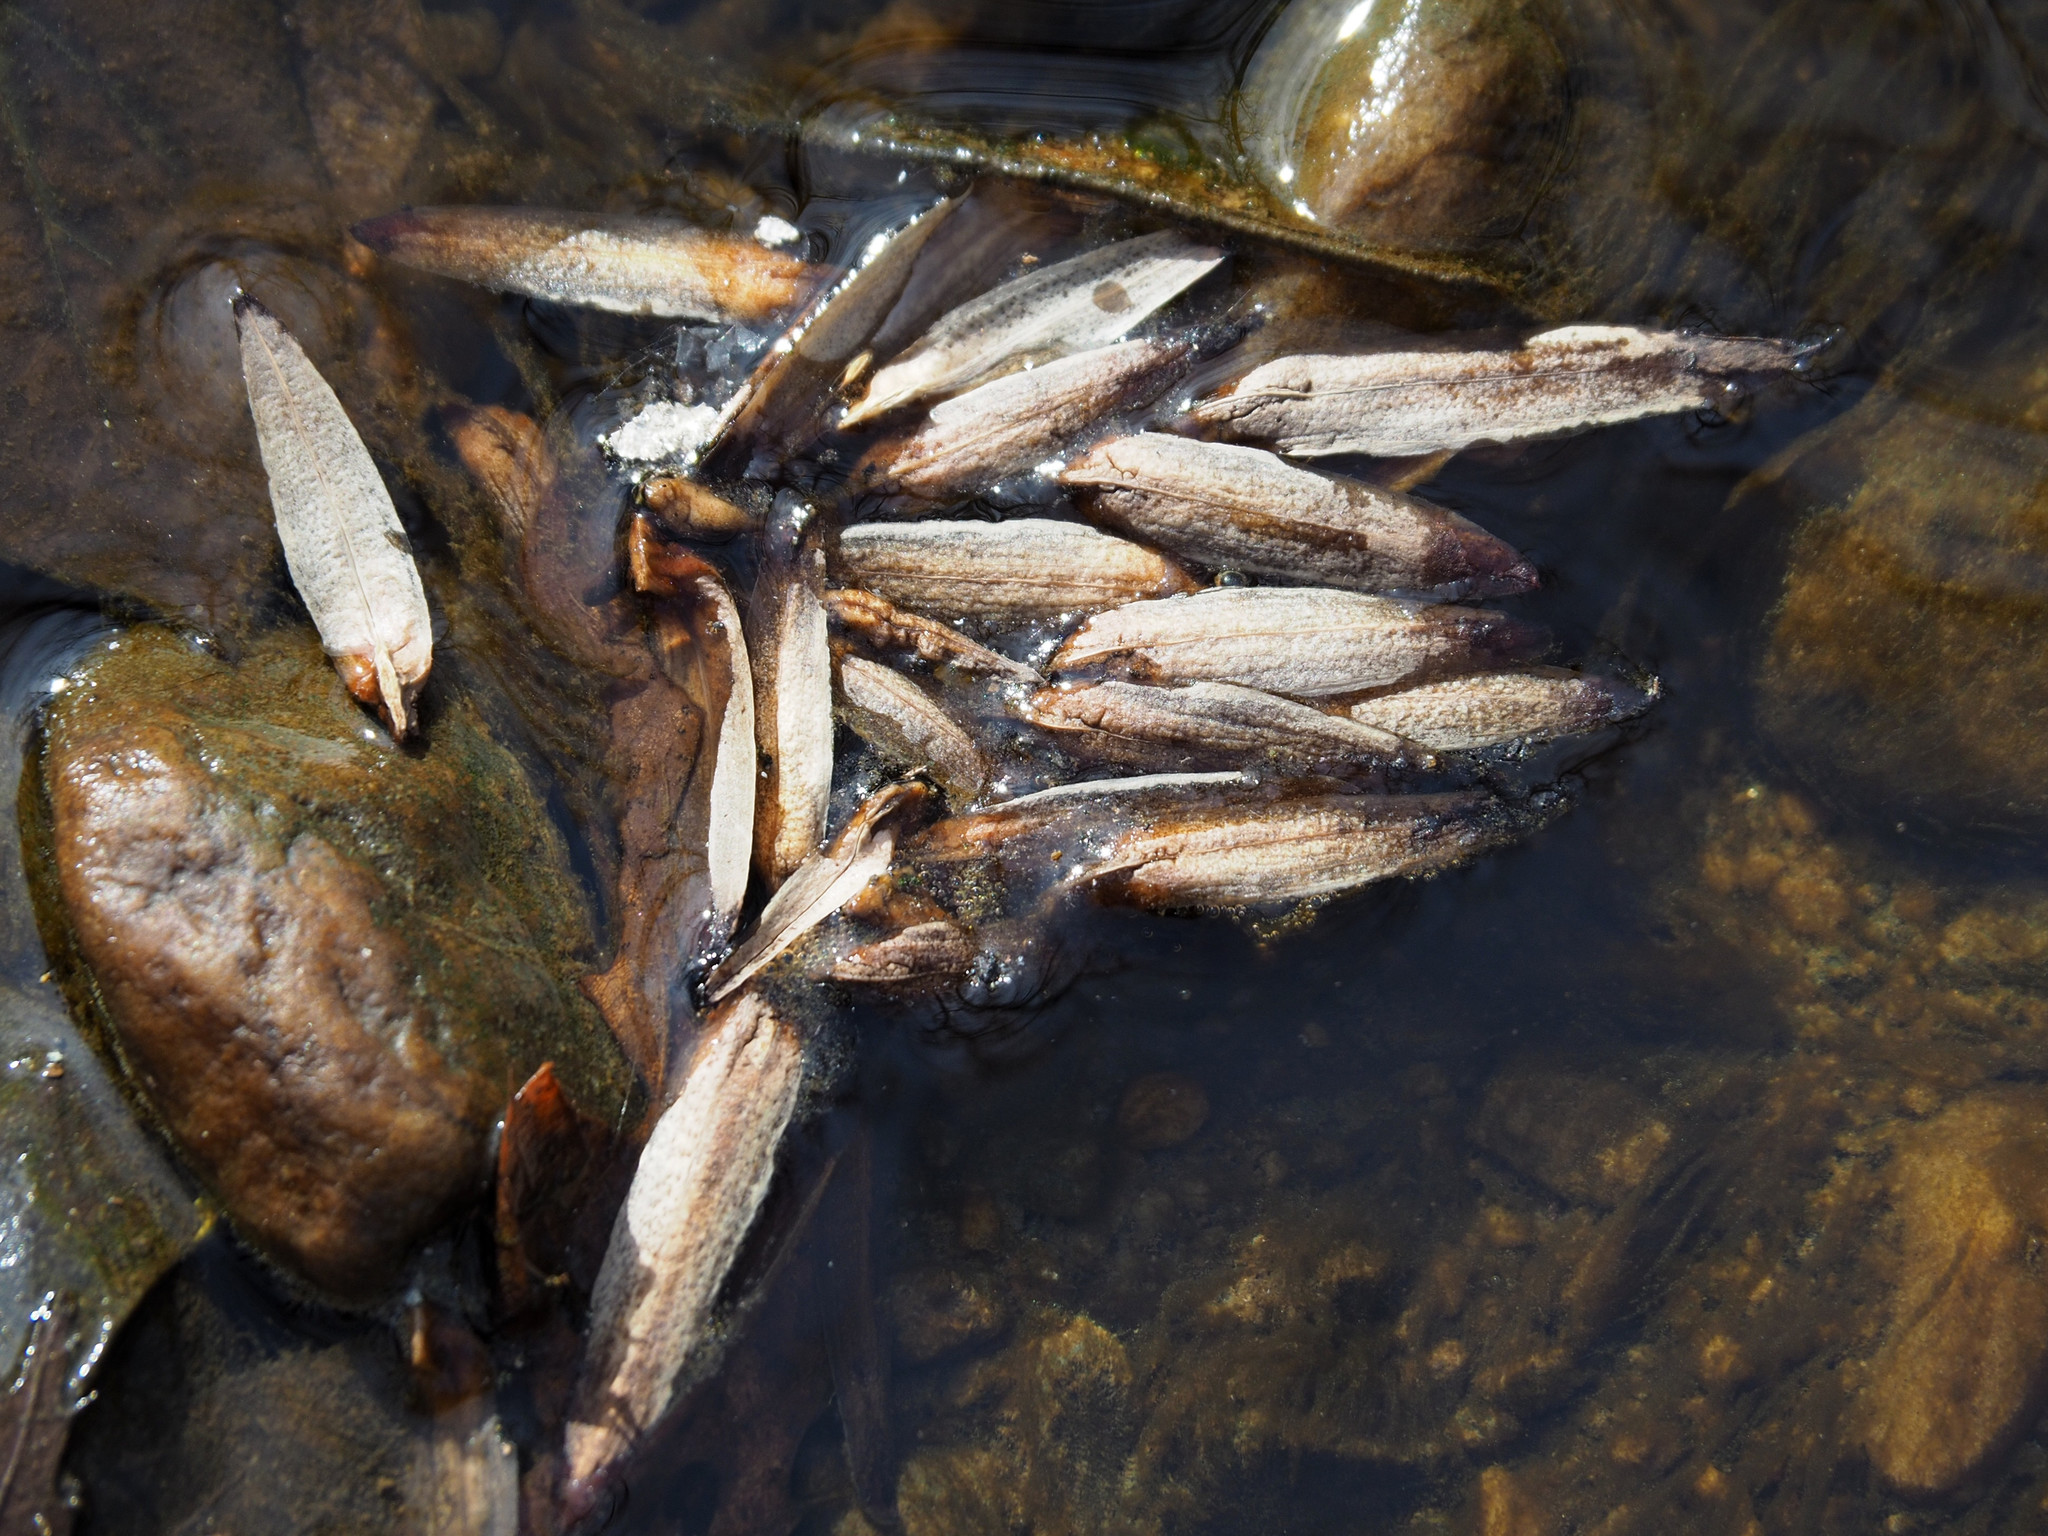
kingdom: Plantae
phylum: Tracheophyta
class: Magnoliopsida
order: Magnoliales
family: Magnoliaceae
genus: Liriodendron
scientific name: Liriodendron tulipifera
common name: Tulip tree
